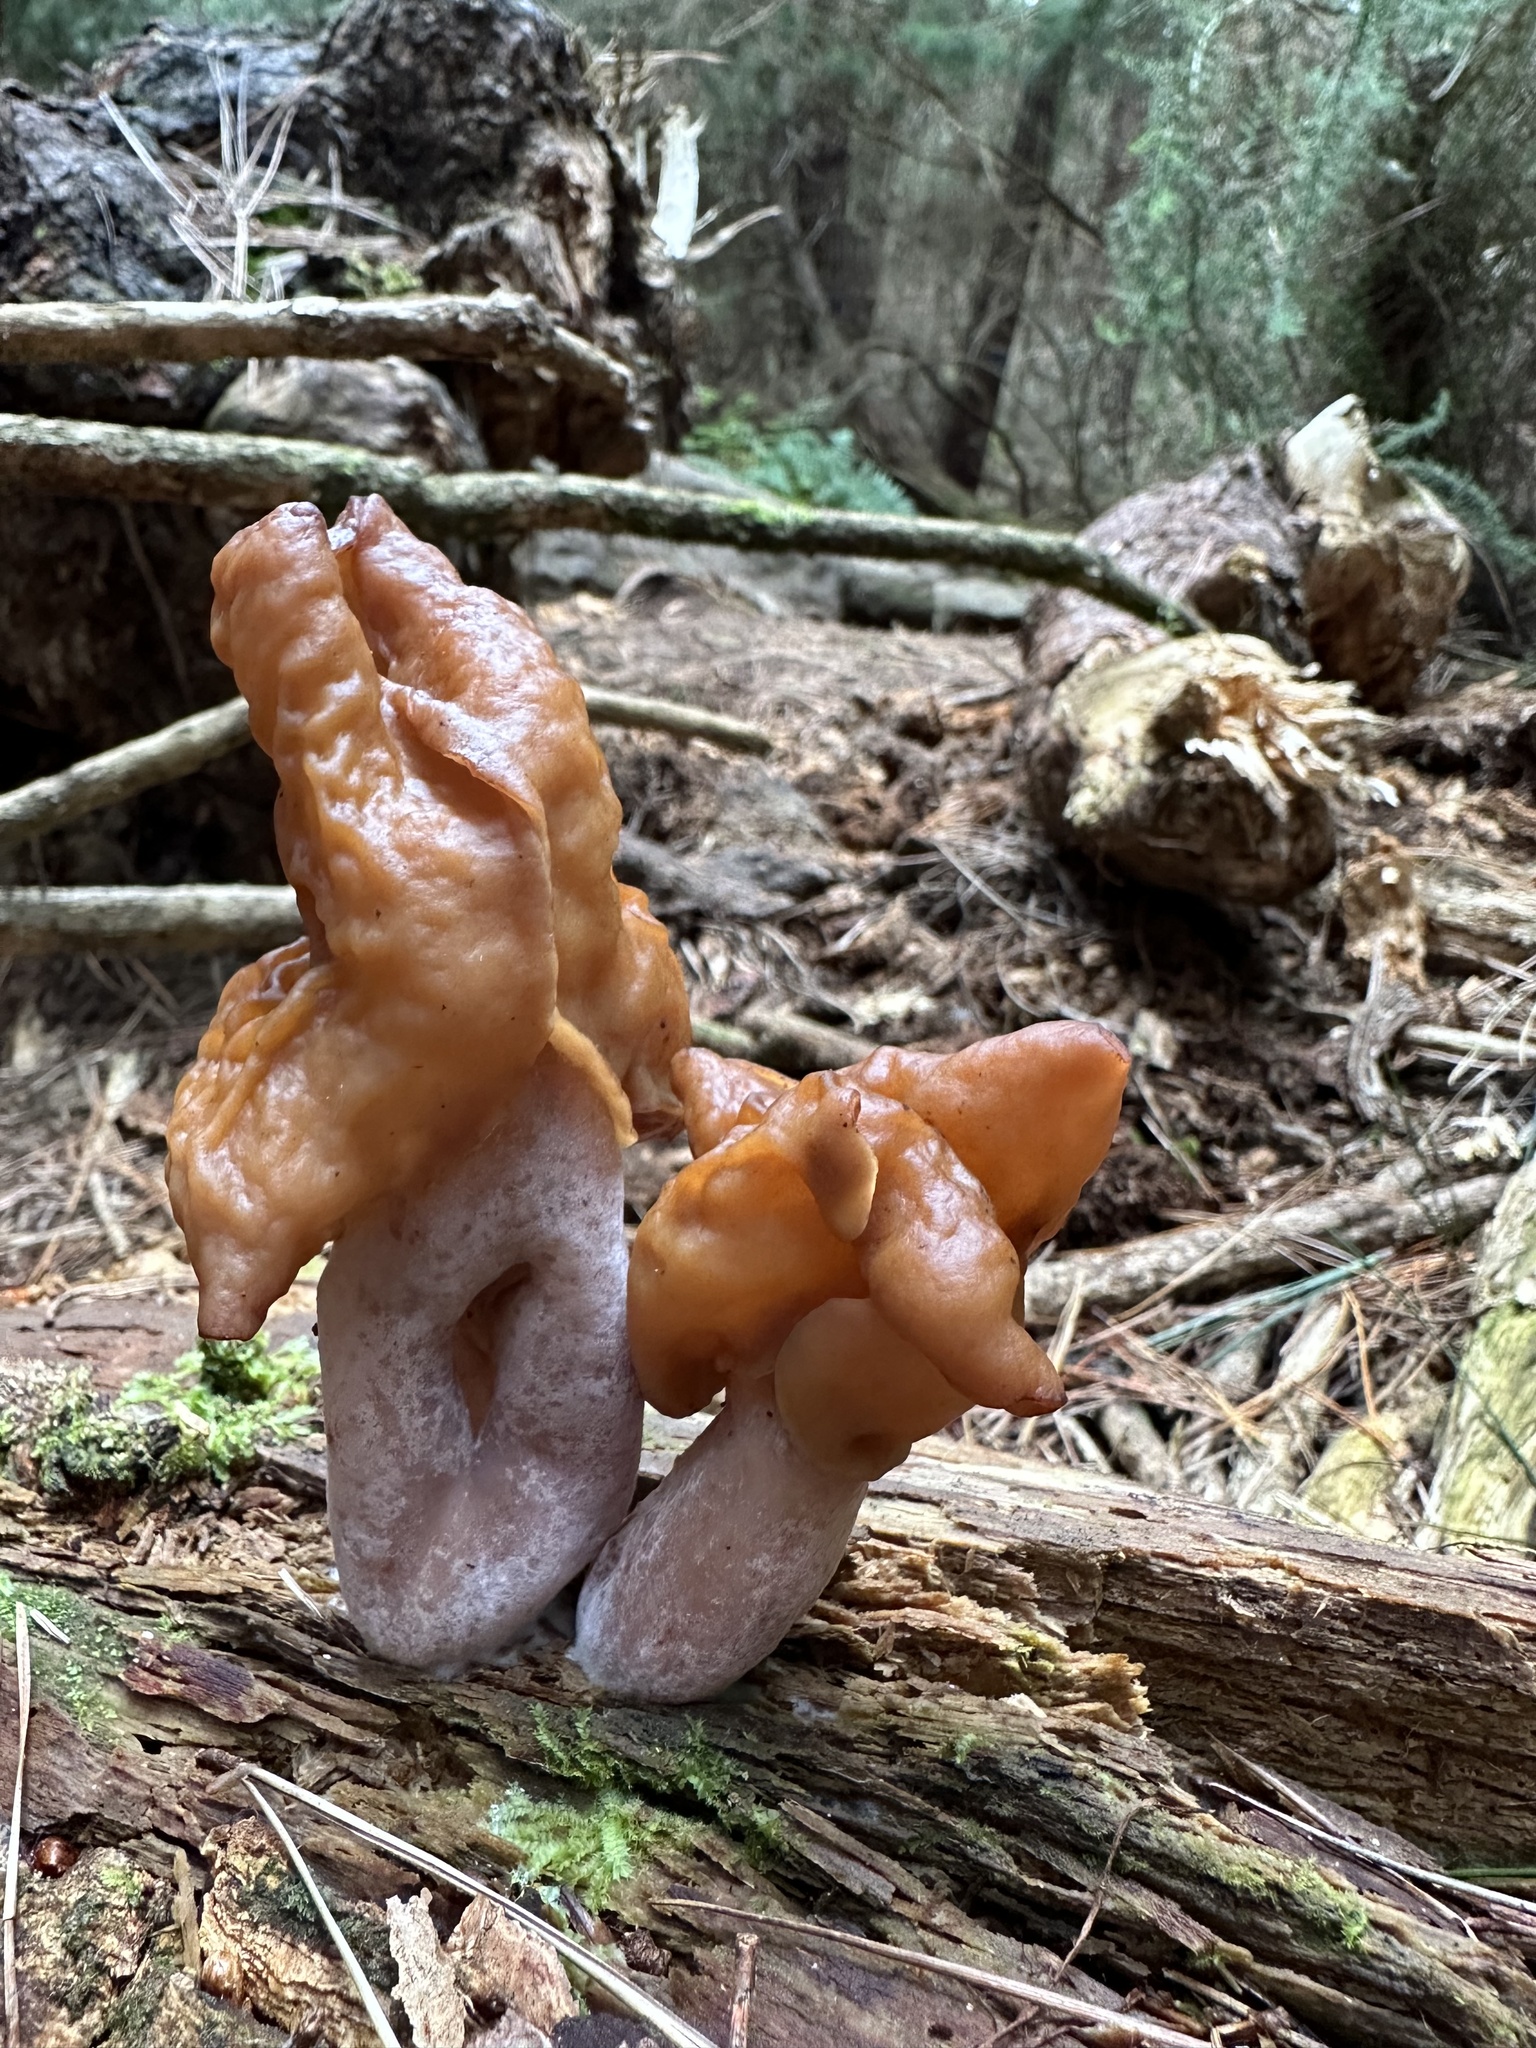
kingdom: Fungi
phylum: Ascomycota
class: Pezizomycetes
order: Pezizales
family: Discinaceae
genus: Gyromitra
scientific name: Gyromitra infula
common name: Pouched false morel
